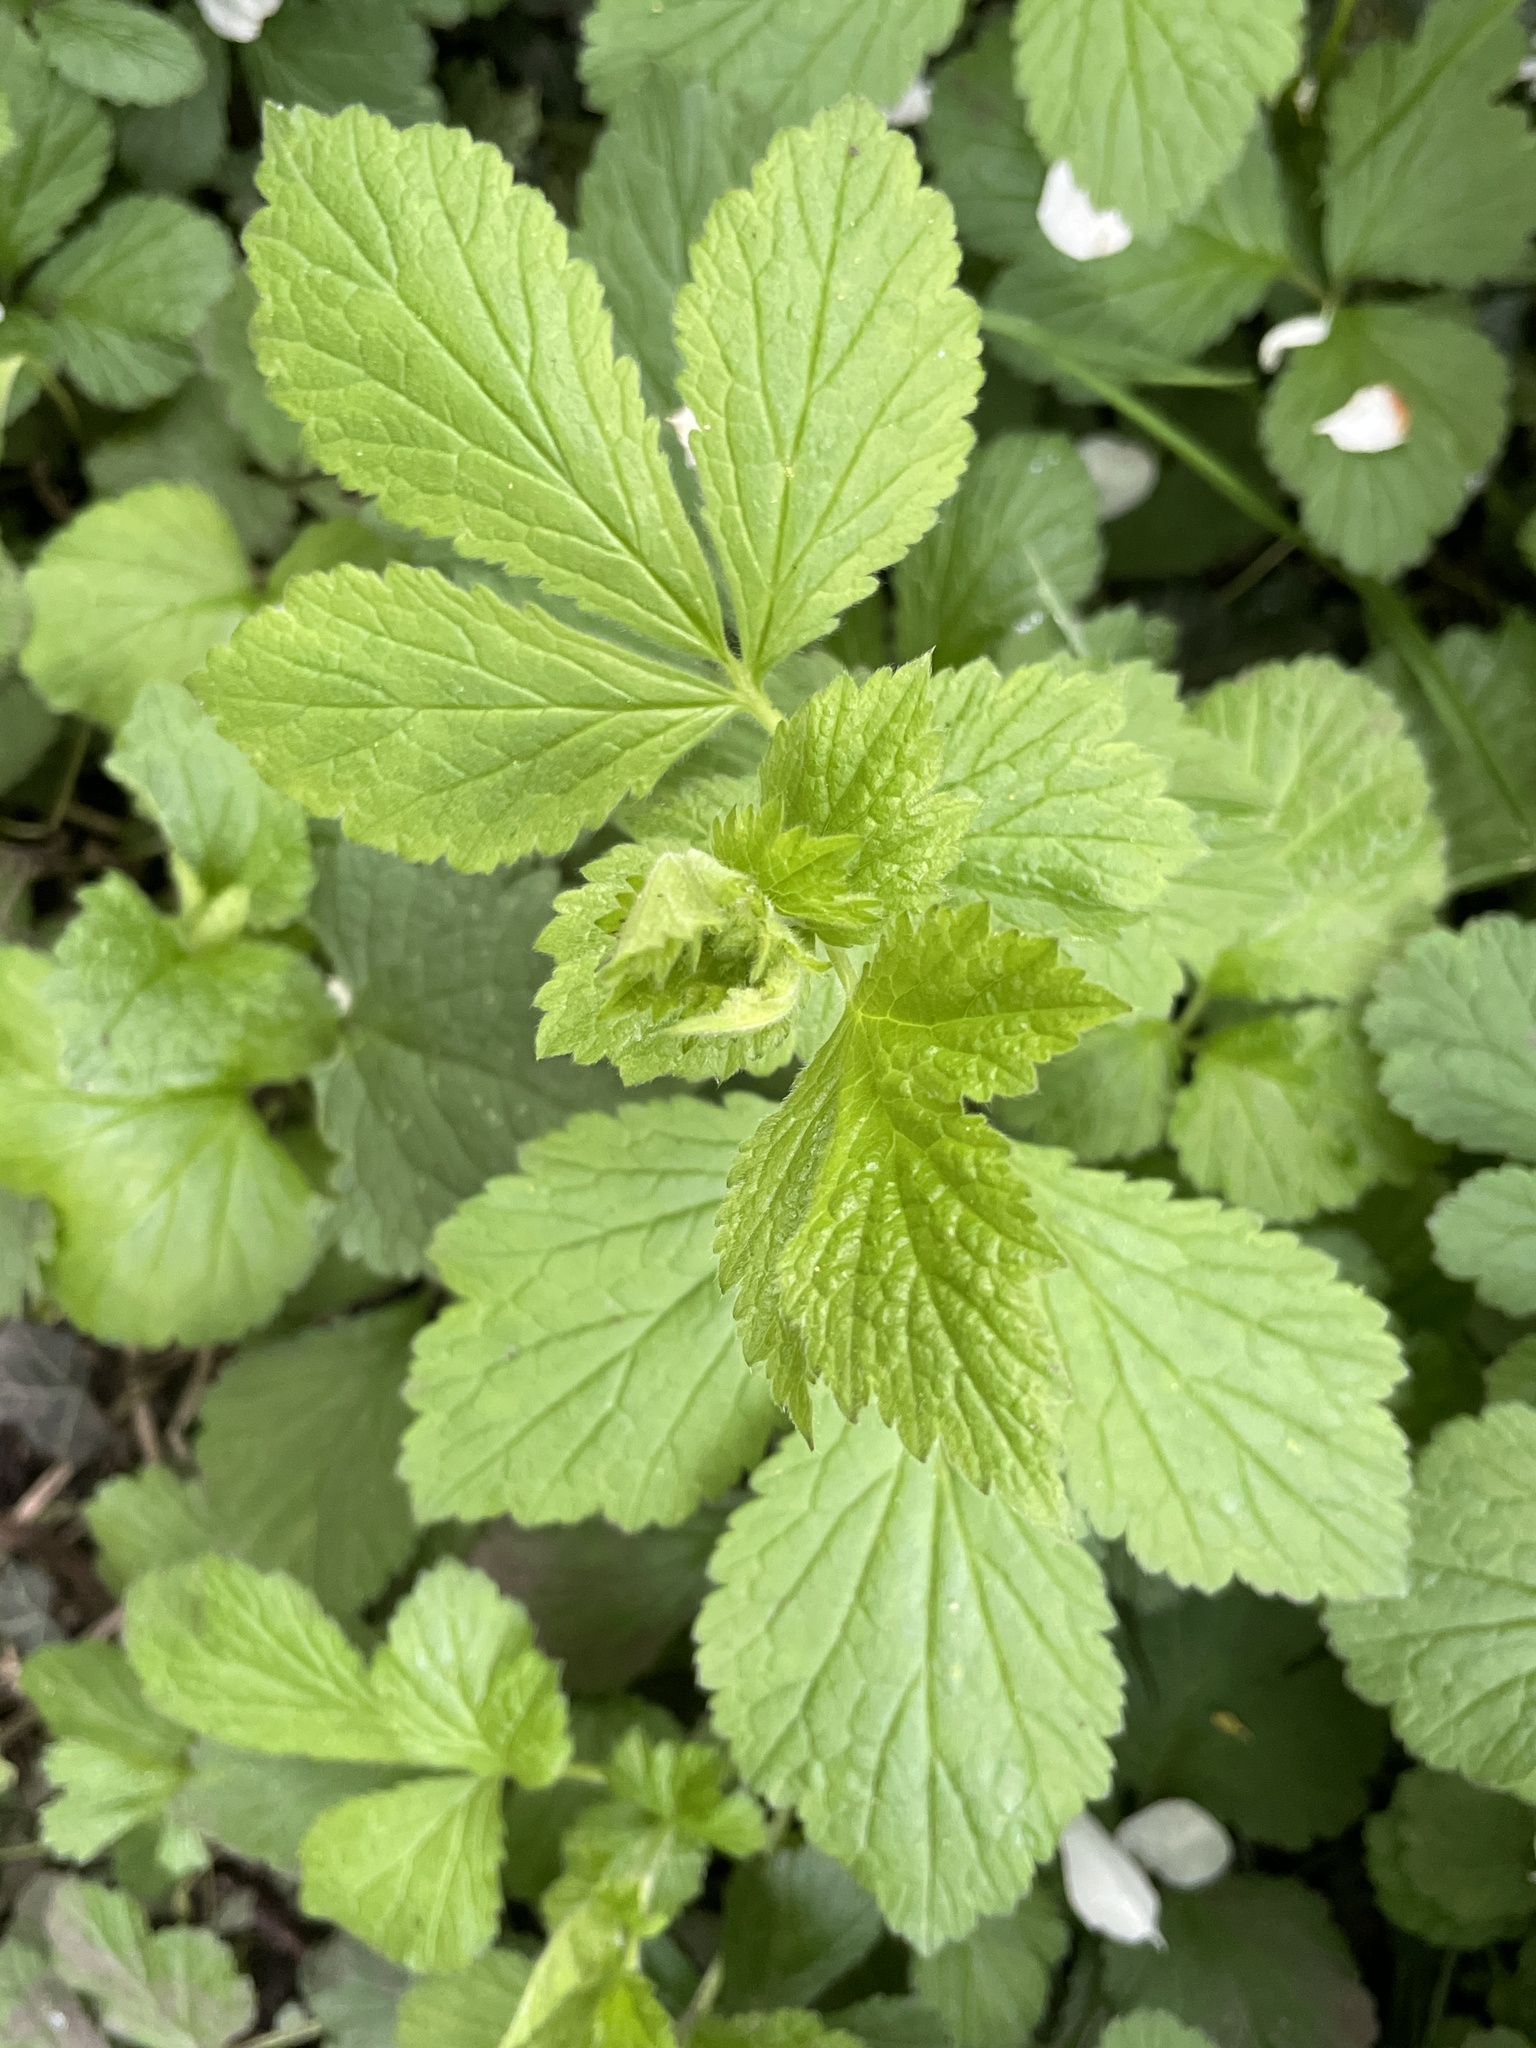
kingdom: Plantae
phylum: Tracheophyta
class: Magnoliopsida
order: Rosales
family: Rosaceae
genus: Geum
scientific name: Geum urbanum
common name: Wood avens
